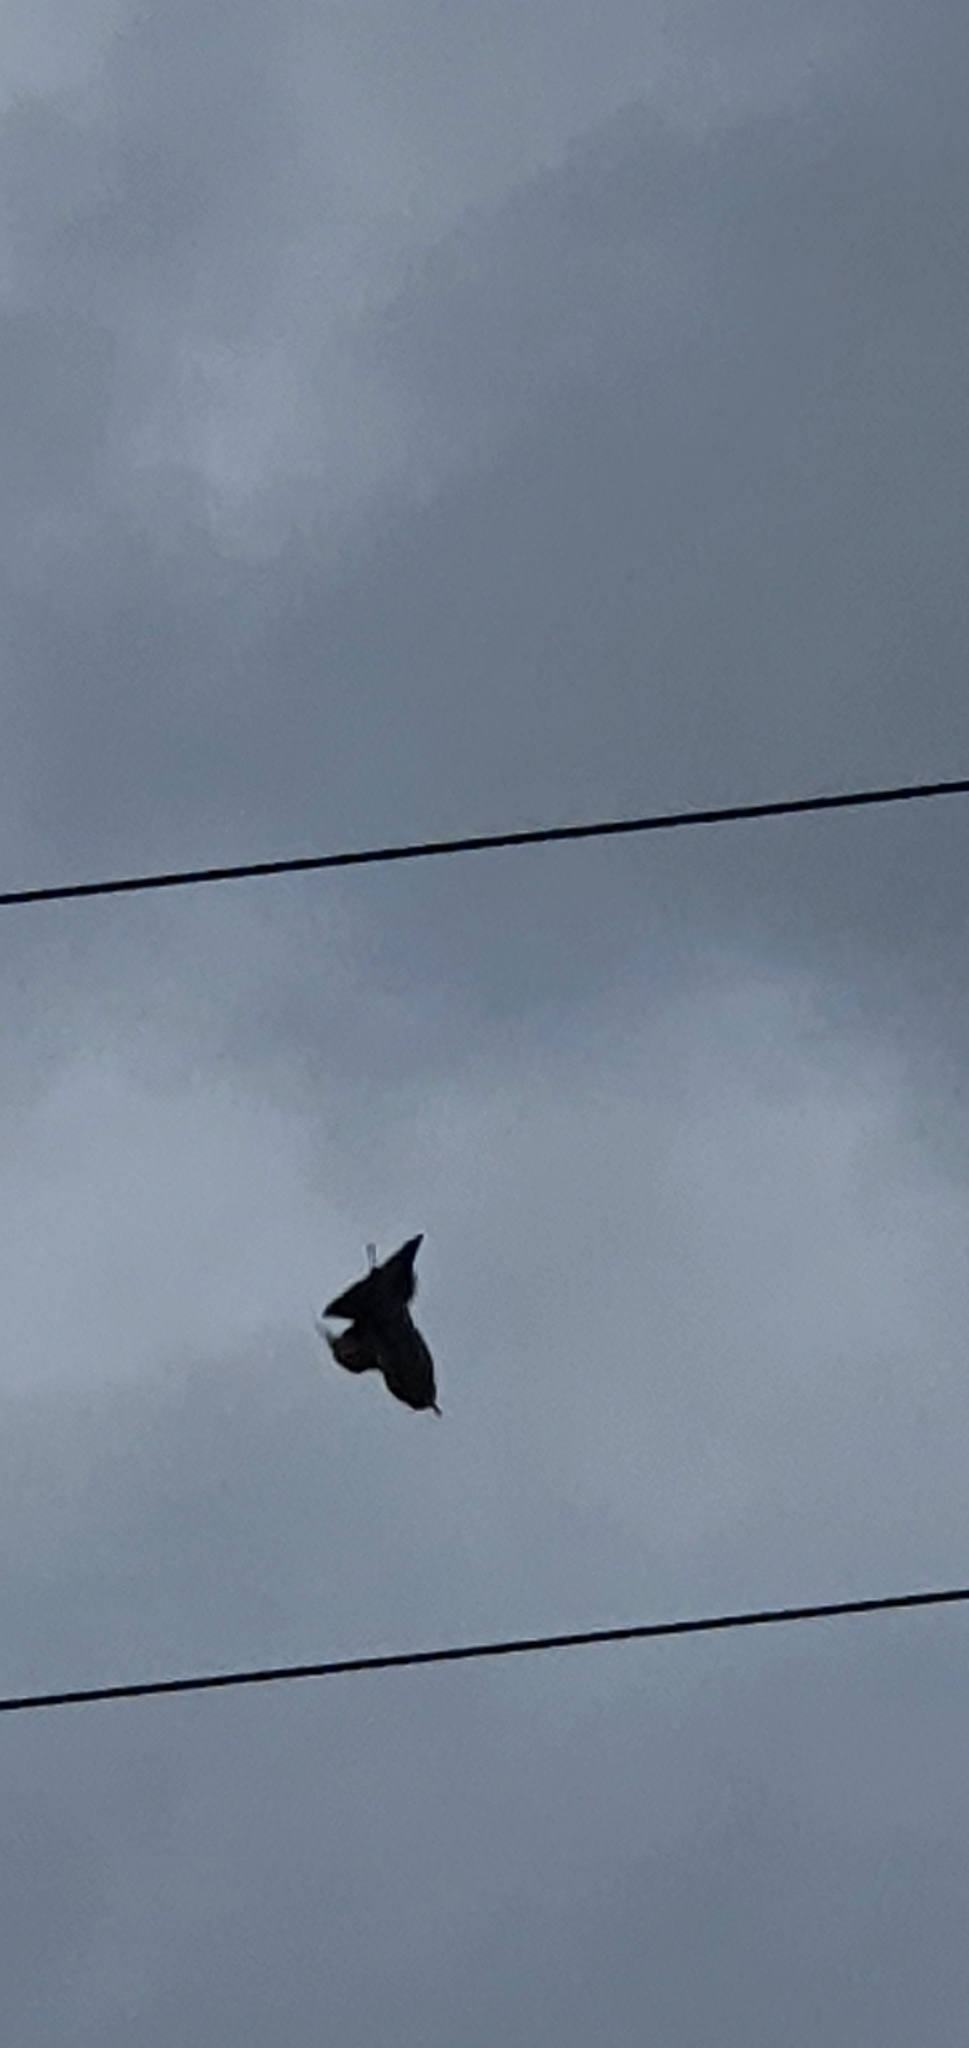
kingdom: Animalia
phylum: Chordata
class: Aves
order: Coraciiformes
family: Meropidae
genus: Merops
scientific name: Merops ornatus
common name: Rainbow bee-eater
